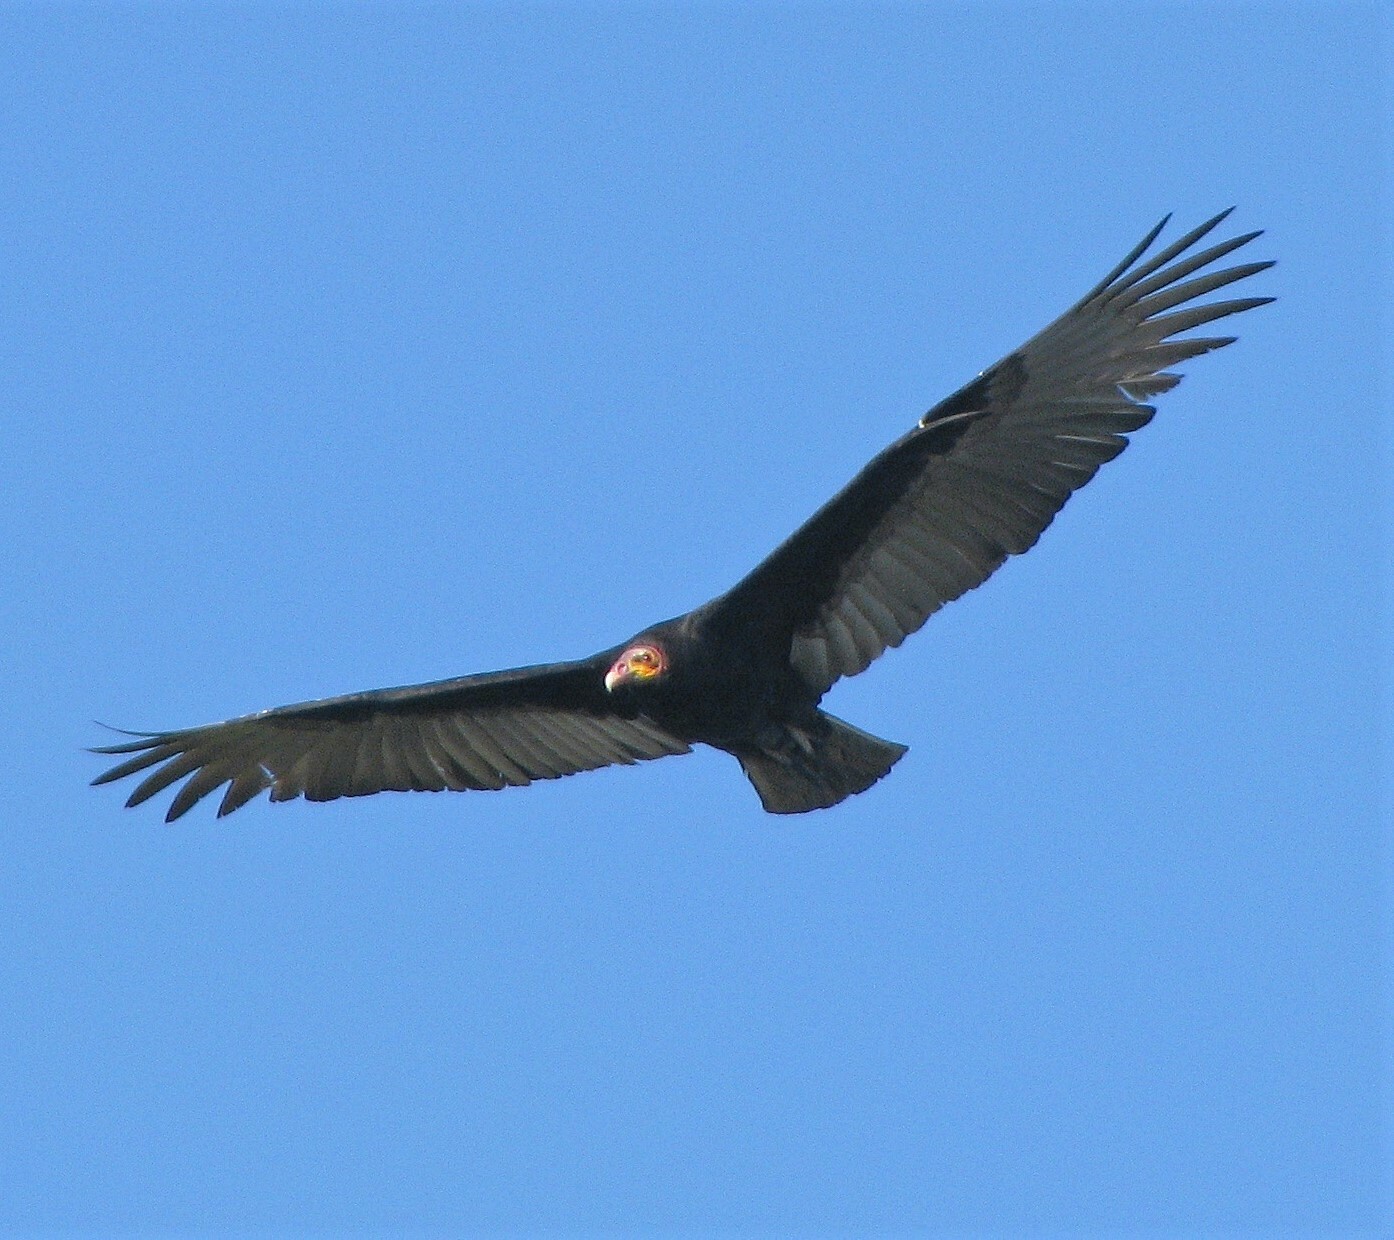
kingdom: Animalia
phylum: Chordata
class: Aves
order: Accipitriformes
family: Cathartidae
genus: Cathartes
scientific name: Cathartes burrovianus
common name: Lesser yellow-headed vulture
